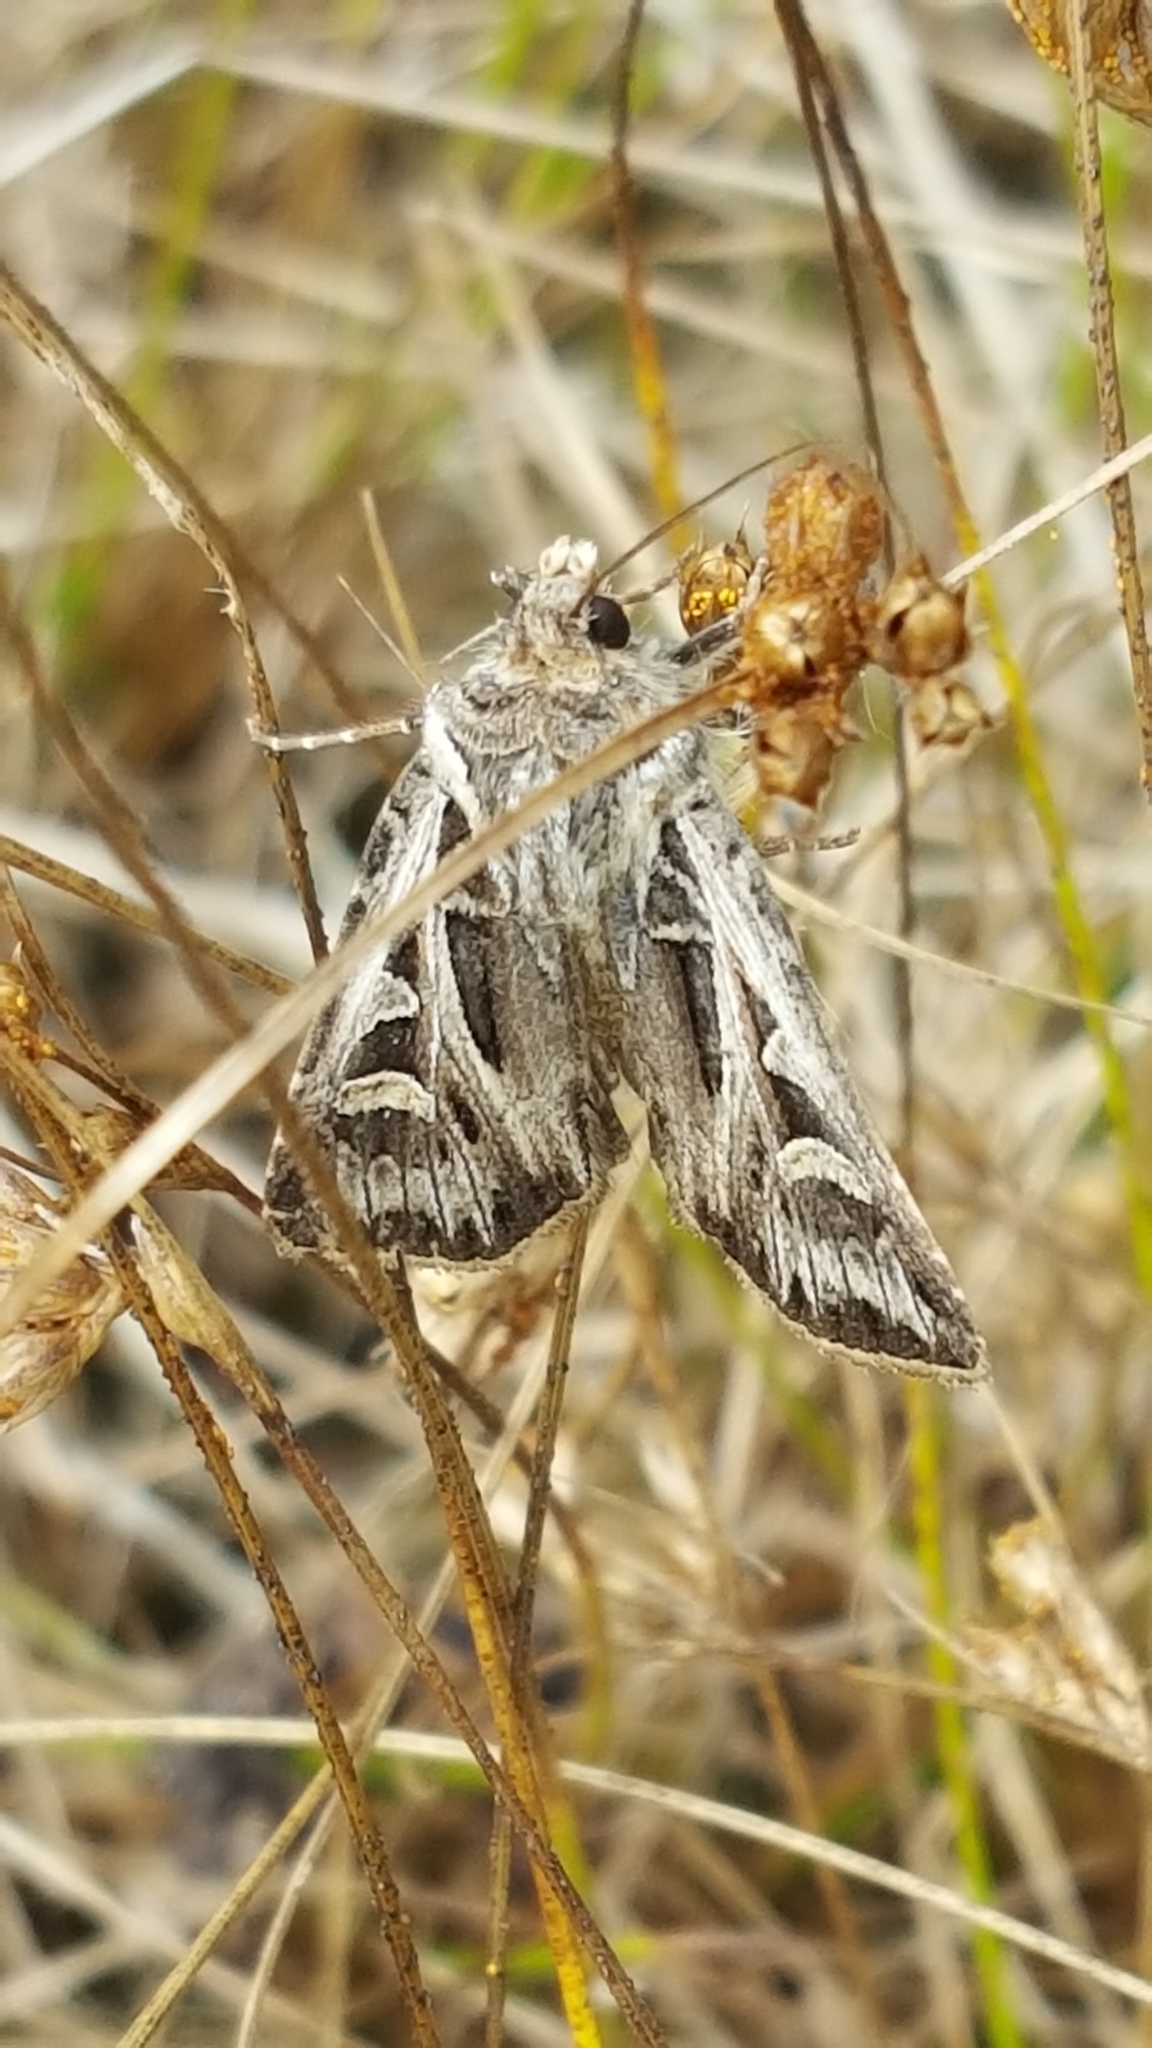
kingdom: Animalia
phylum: Arthropoda
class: Insecta
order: Lepidoptera
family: Noctuidae
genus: Feltia
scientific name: Feltia jaculifera
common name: Dingy cutworm moth
